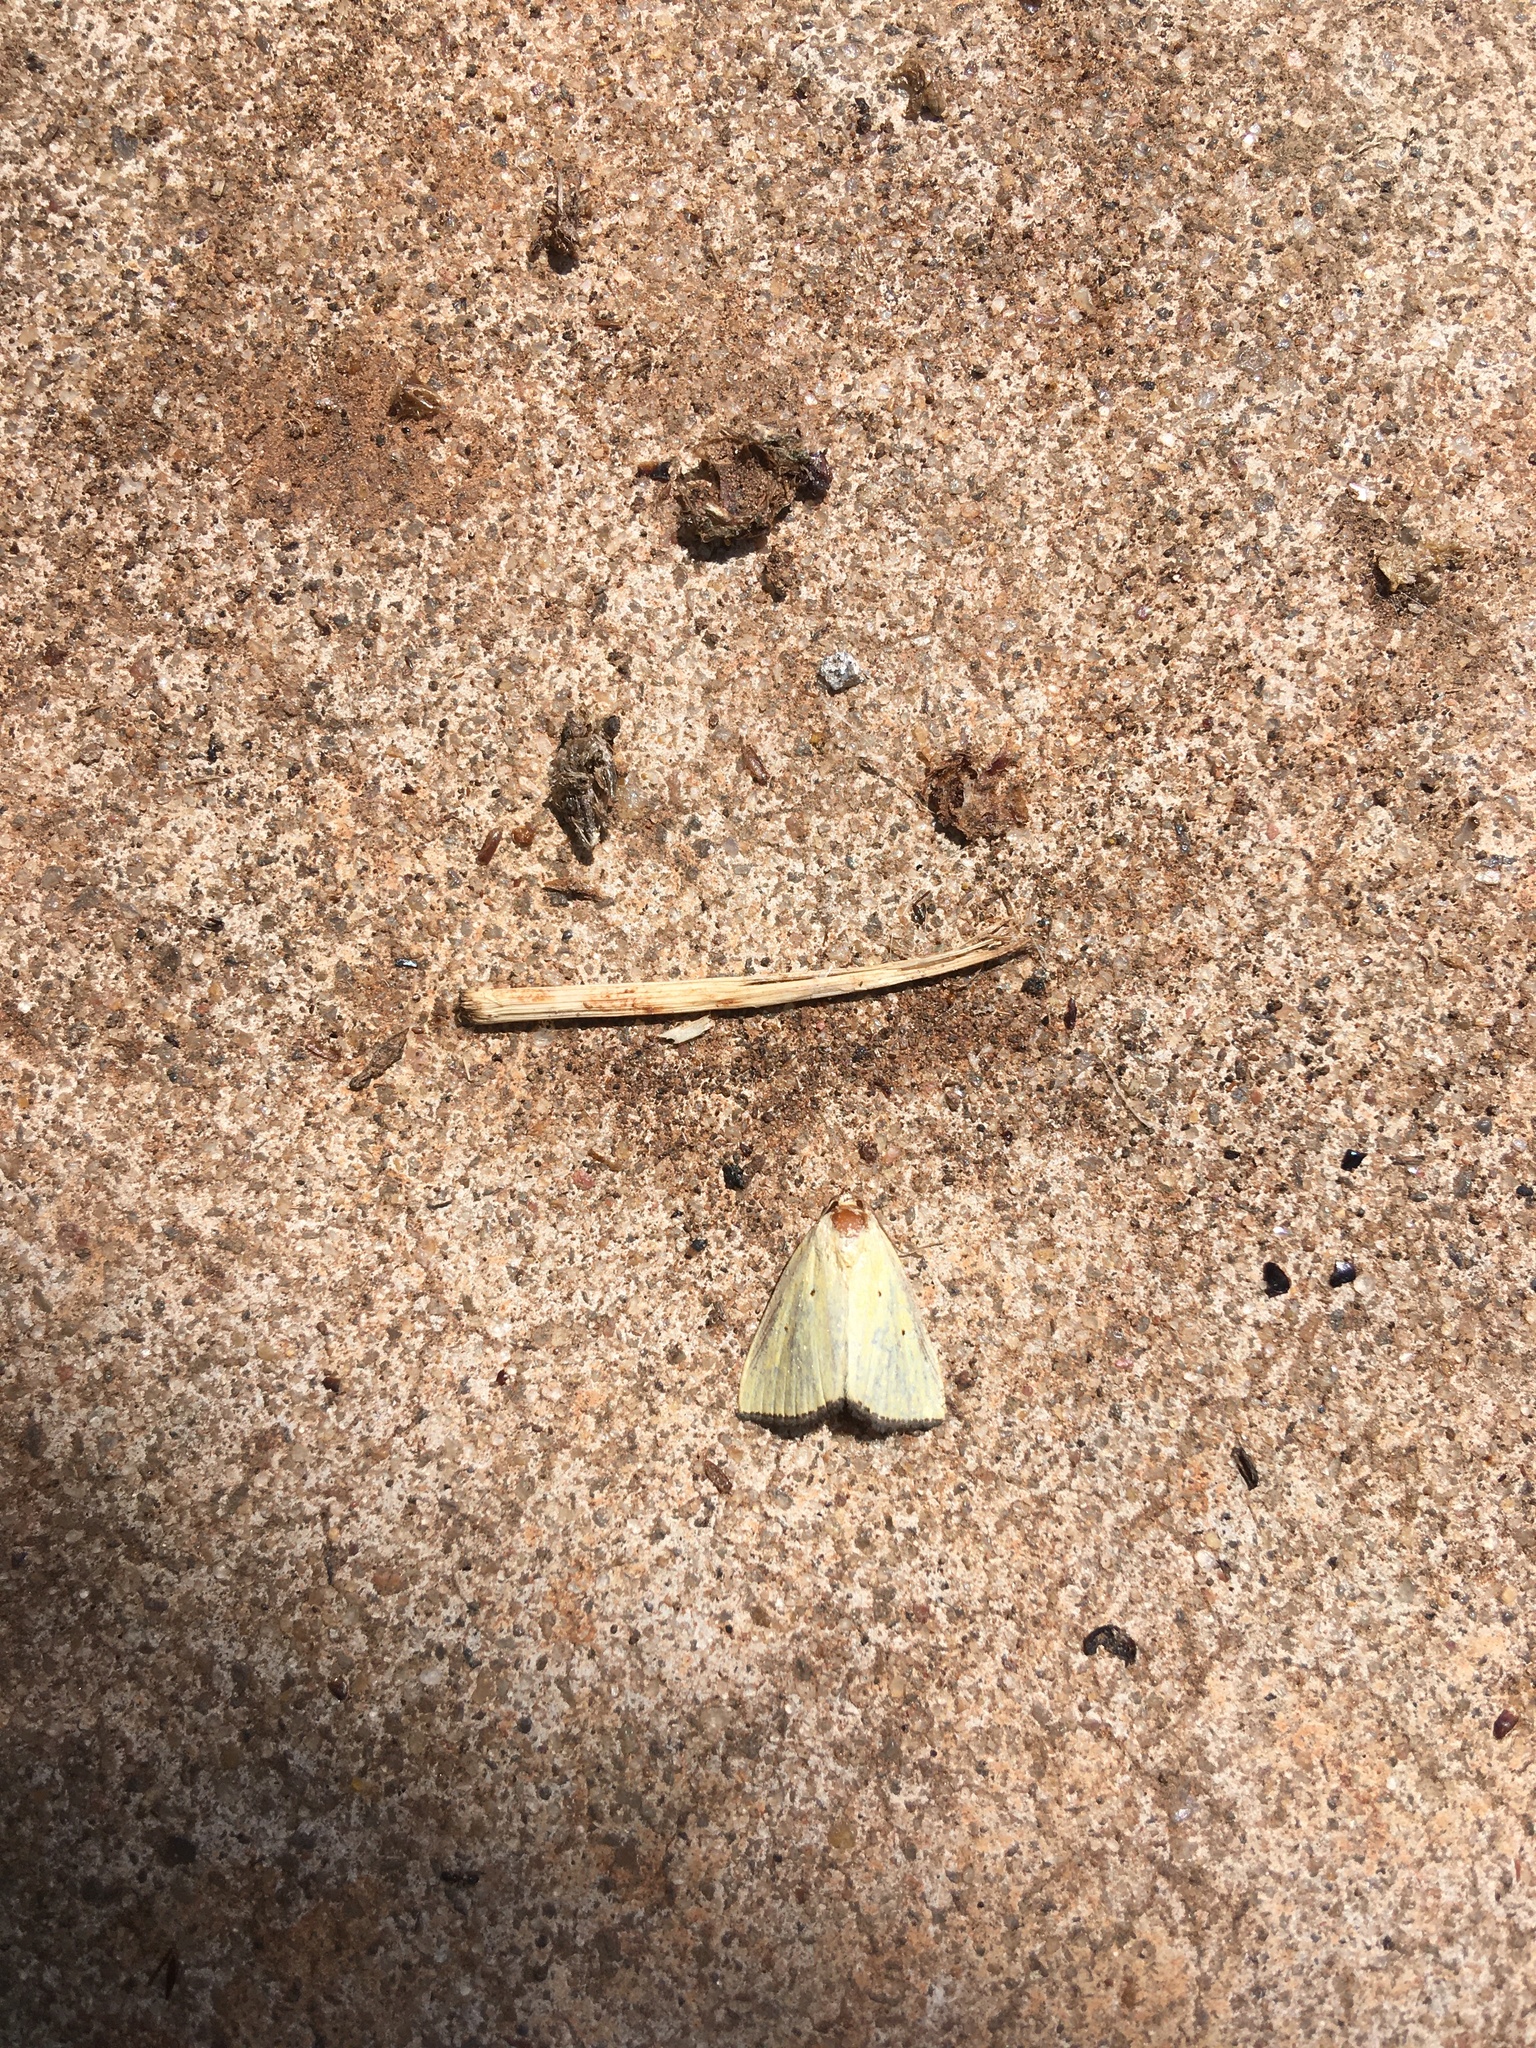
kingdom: Animalia
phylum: Arthropoda
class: Insecta
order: Lepidoptera
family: Noctuidae
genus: Marimatha
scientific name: Marimatha nigrofimbria
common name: Black-bordered lemon moth
